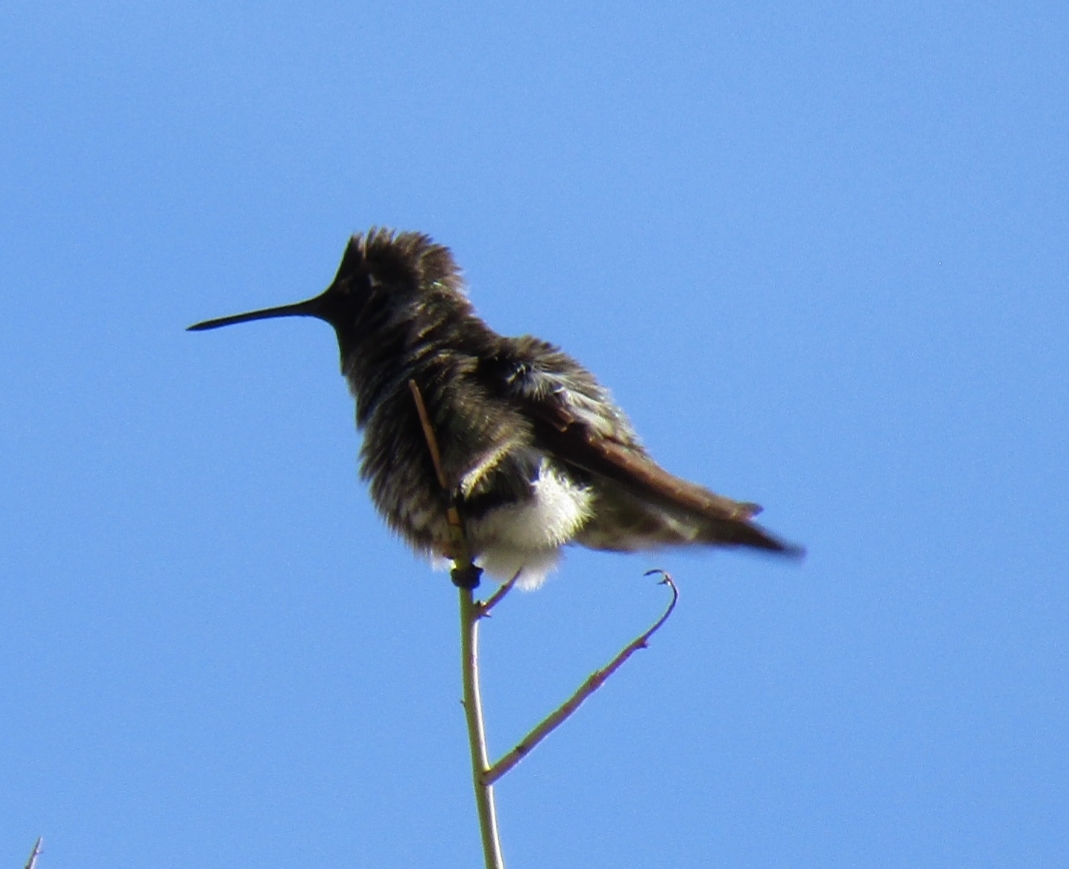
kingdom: Animalia
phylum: Chordata
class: Aves
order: Apodiformes
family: Trochilidae
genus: Calypte
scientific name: Calypte anna
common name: Anna's hummingbird
